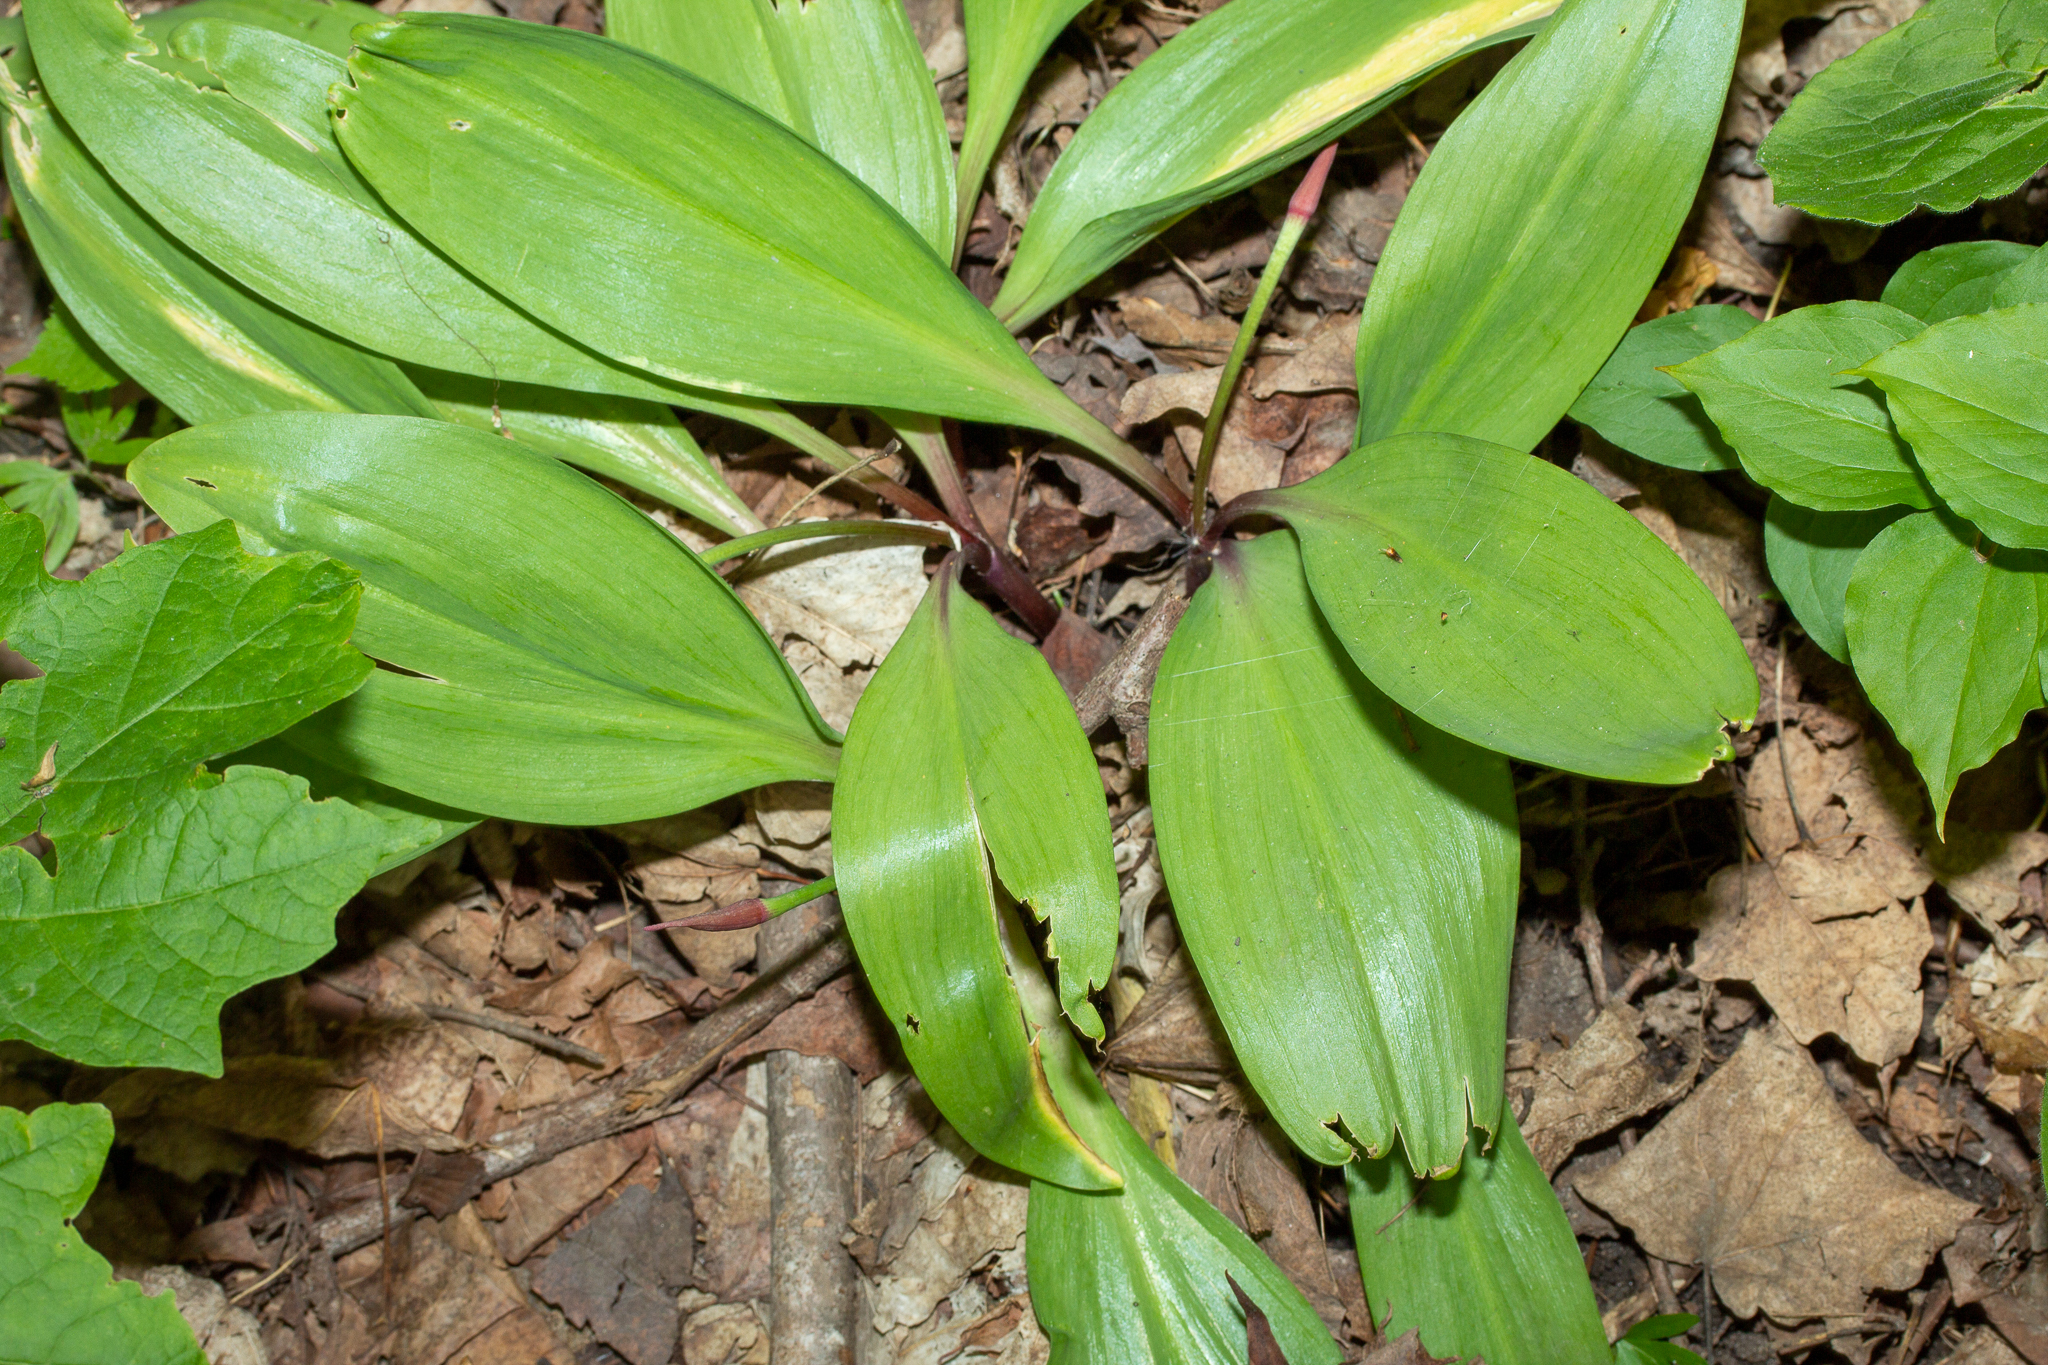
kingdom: Plantae
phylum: Tracheophyta
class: Liliopsida
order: Asparagales
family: Amaryllidaceae
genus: Allium
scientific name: Allium tricoccum
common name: Ramp
